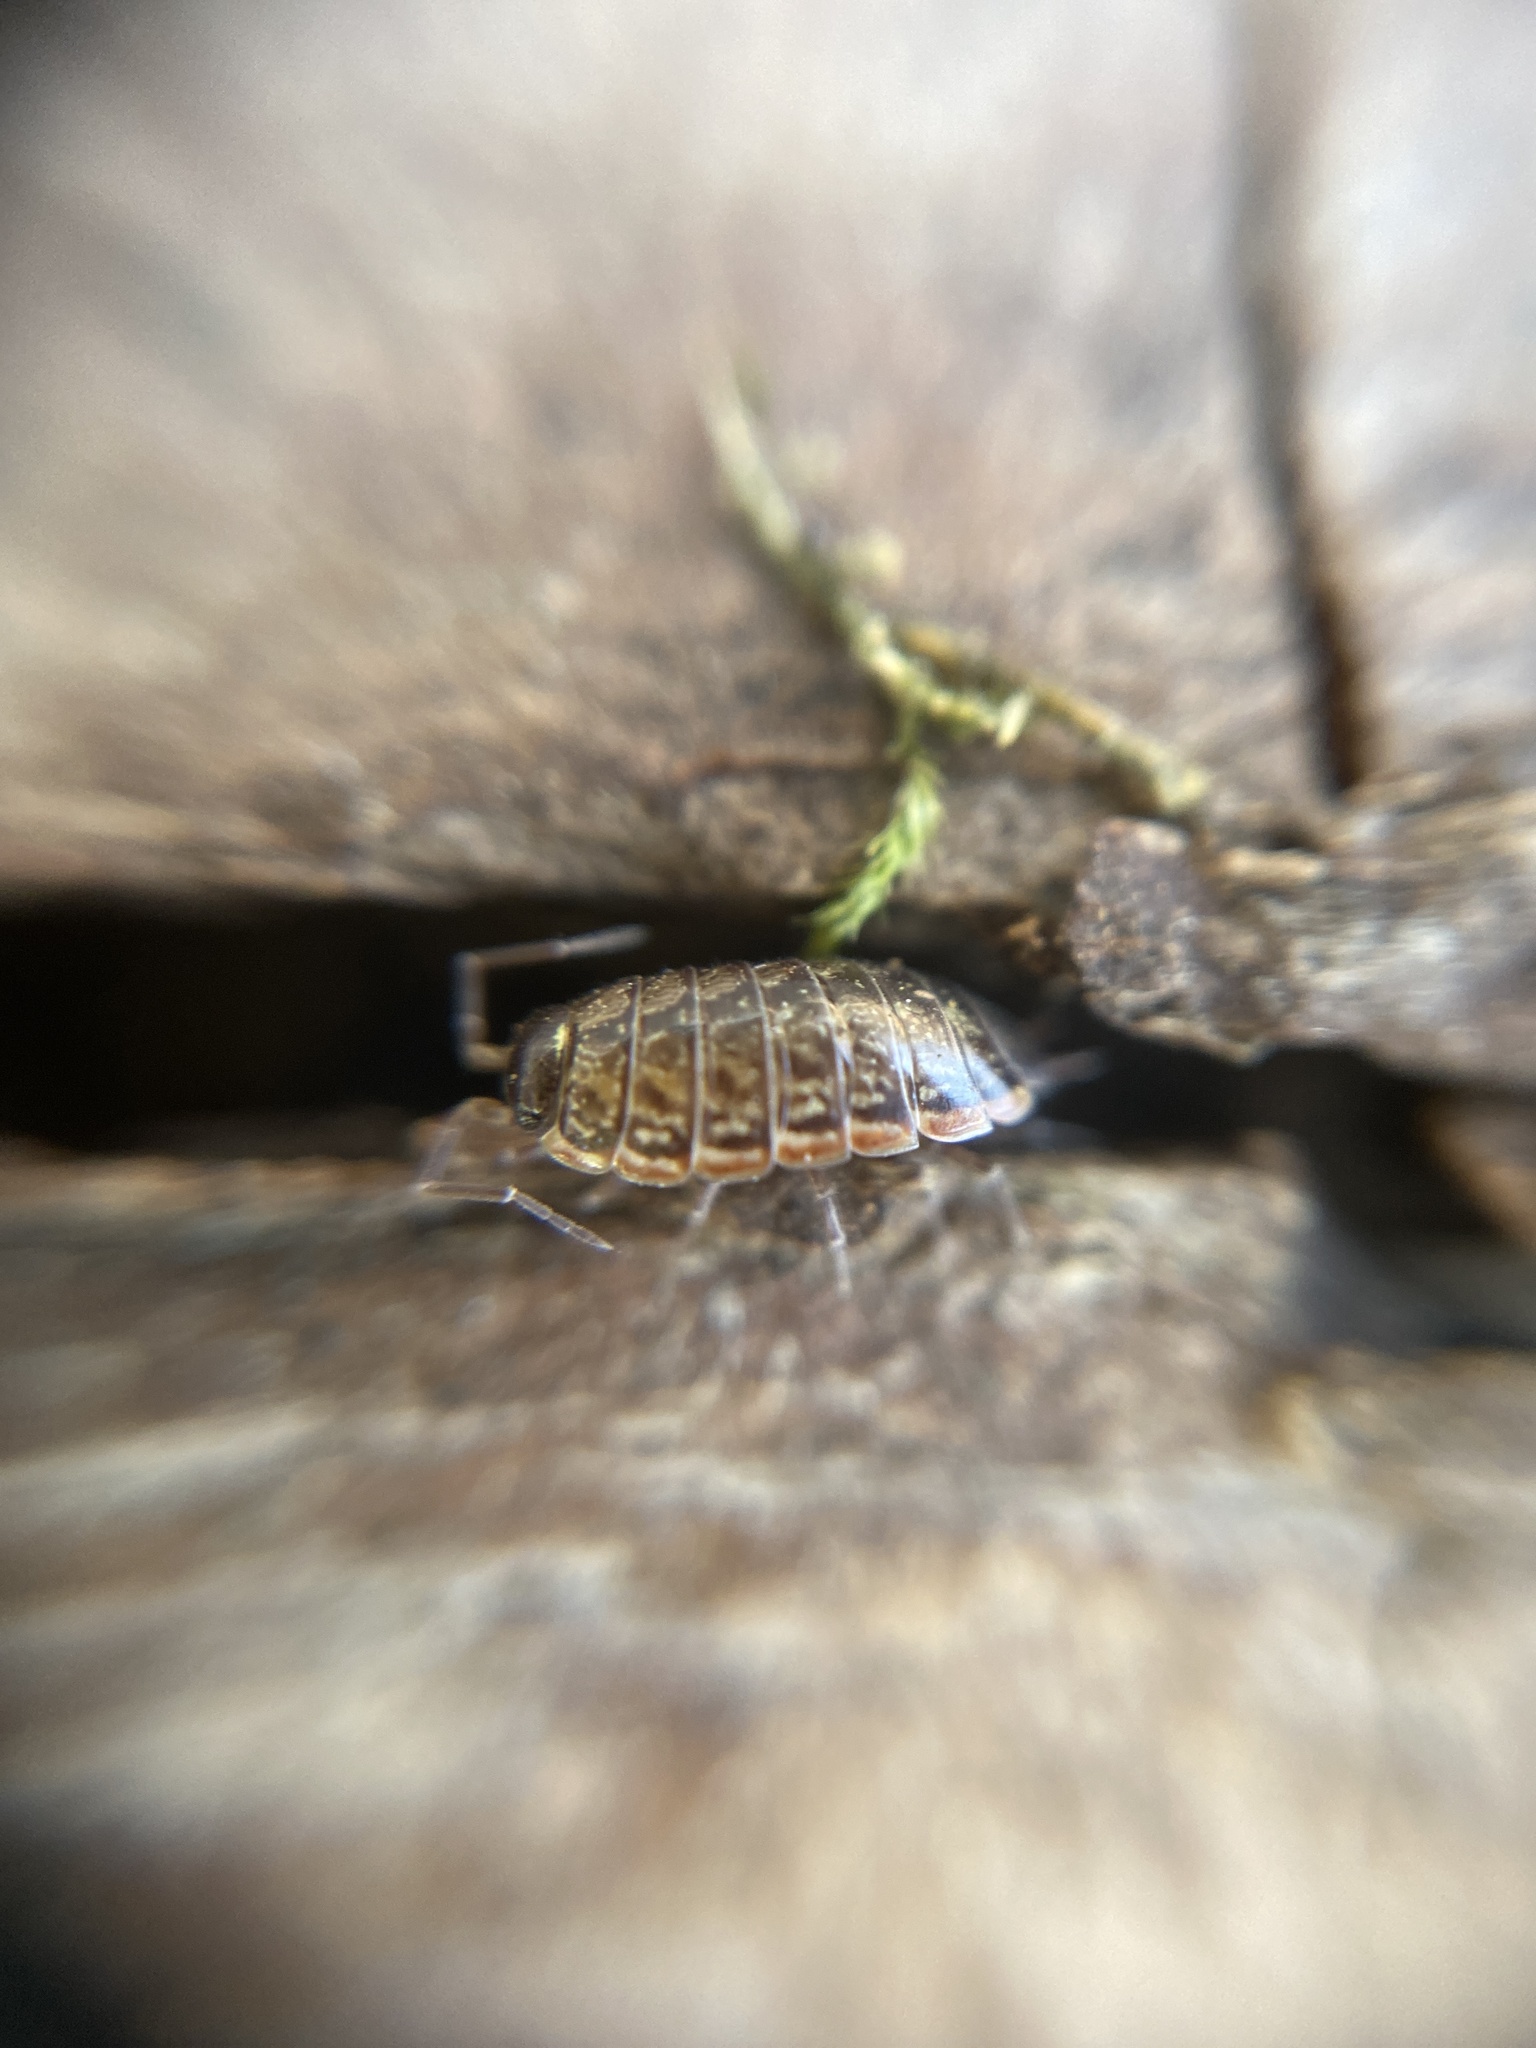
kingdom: Animalia
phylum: Arthropoda
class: Malacostraca
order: Isopoda
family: Philosciidae
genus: Philoscia
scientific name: Philoscia muscorum
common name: Common striped woodlouse
